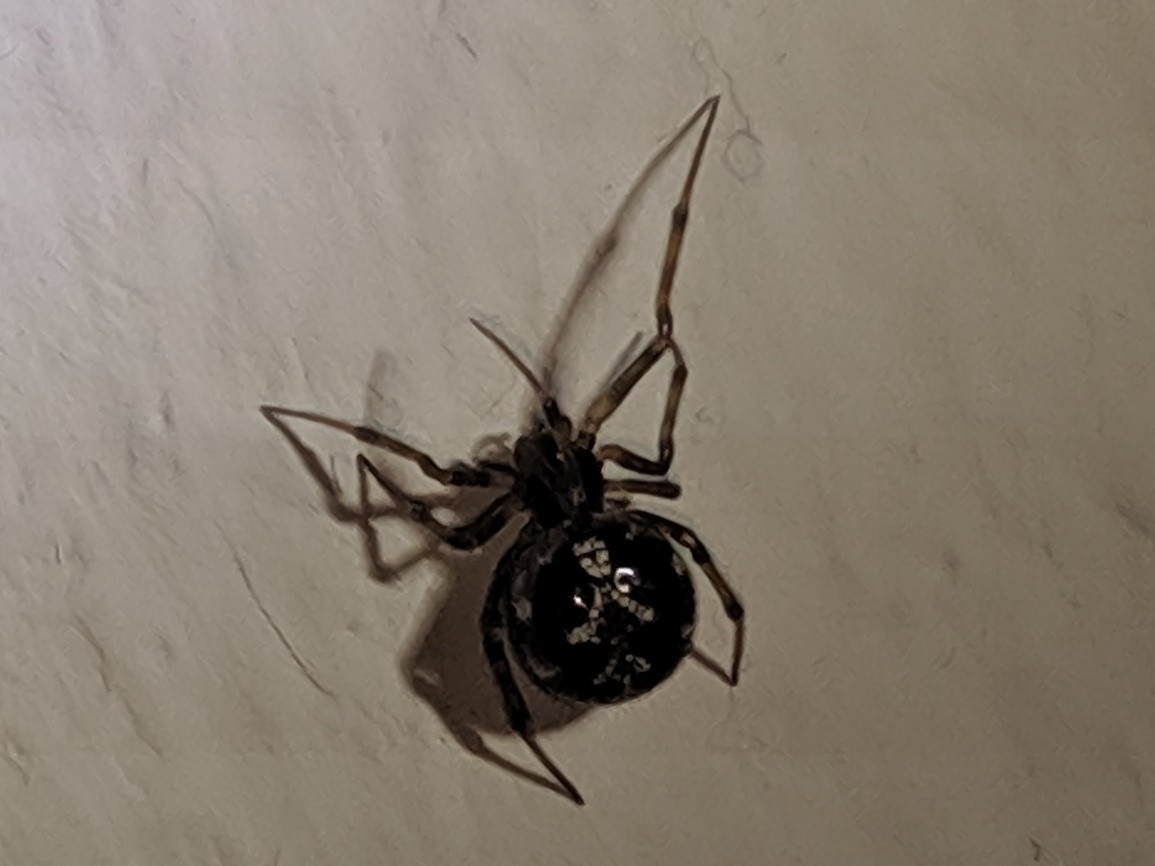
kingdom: Animalia
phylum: Arthropoda
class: Arachnida
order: Araneae
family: Theridiidae
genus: Steatoda
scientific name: Steatoda triangulosa
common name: Triangulate bud spider
